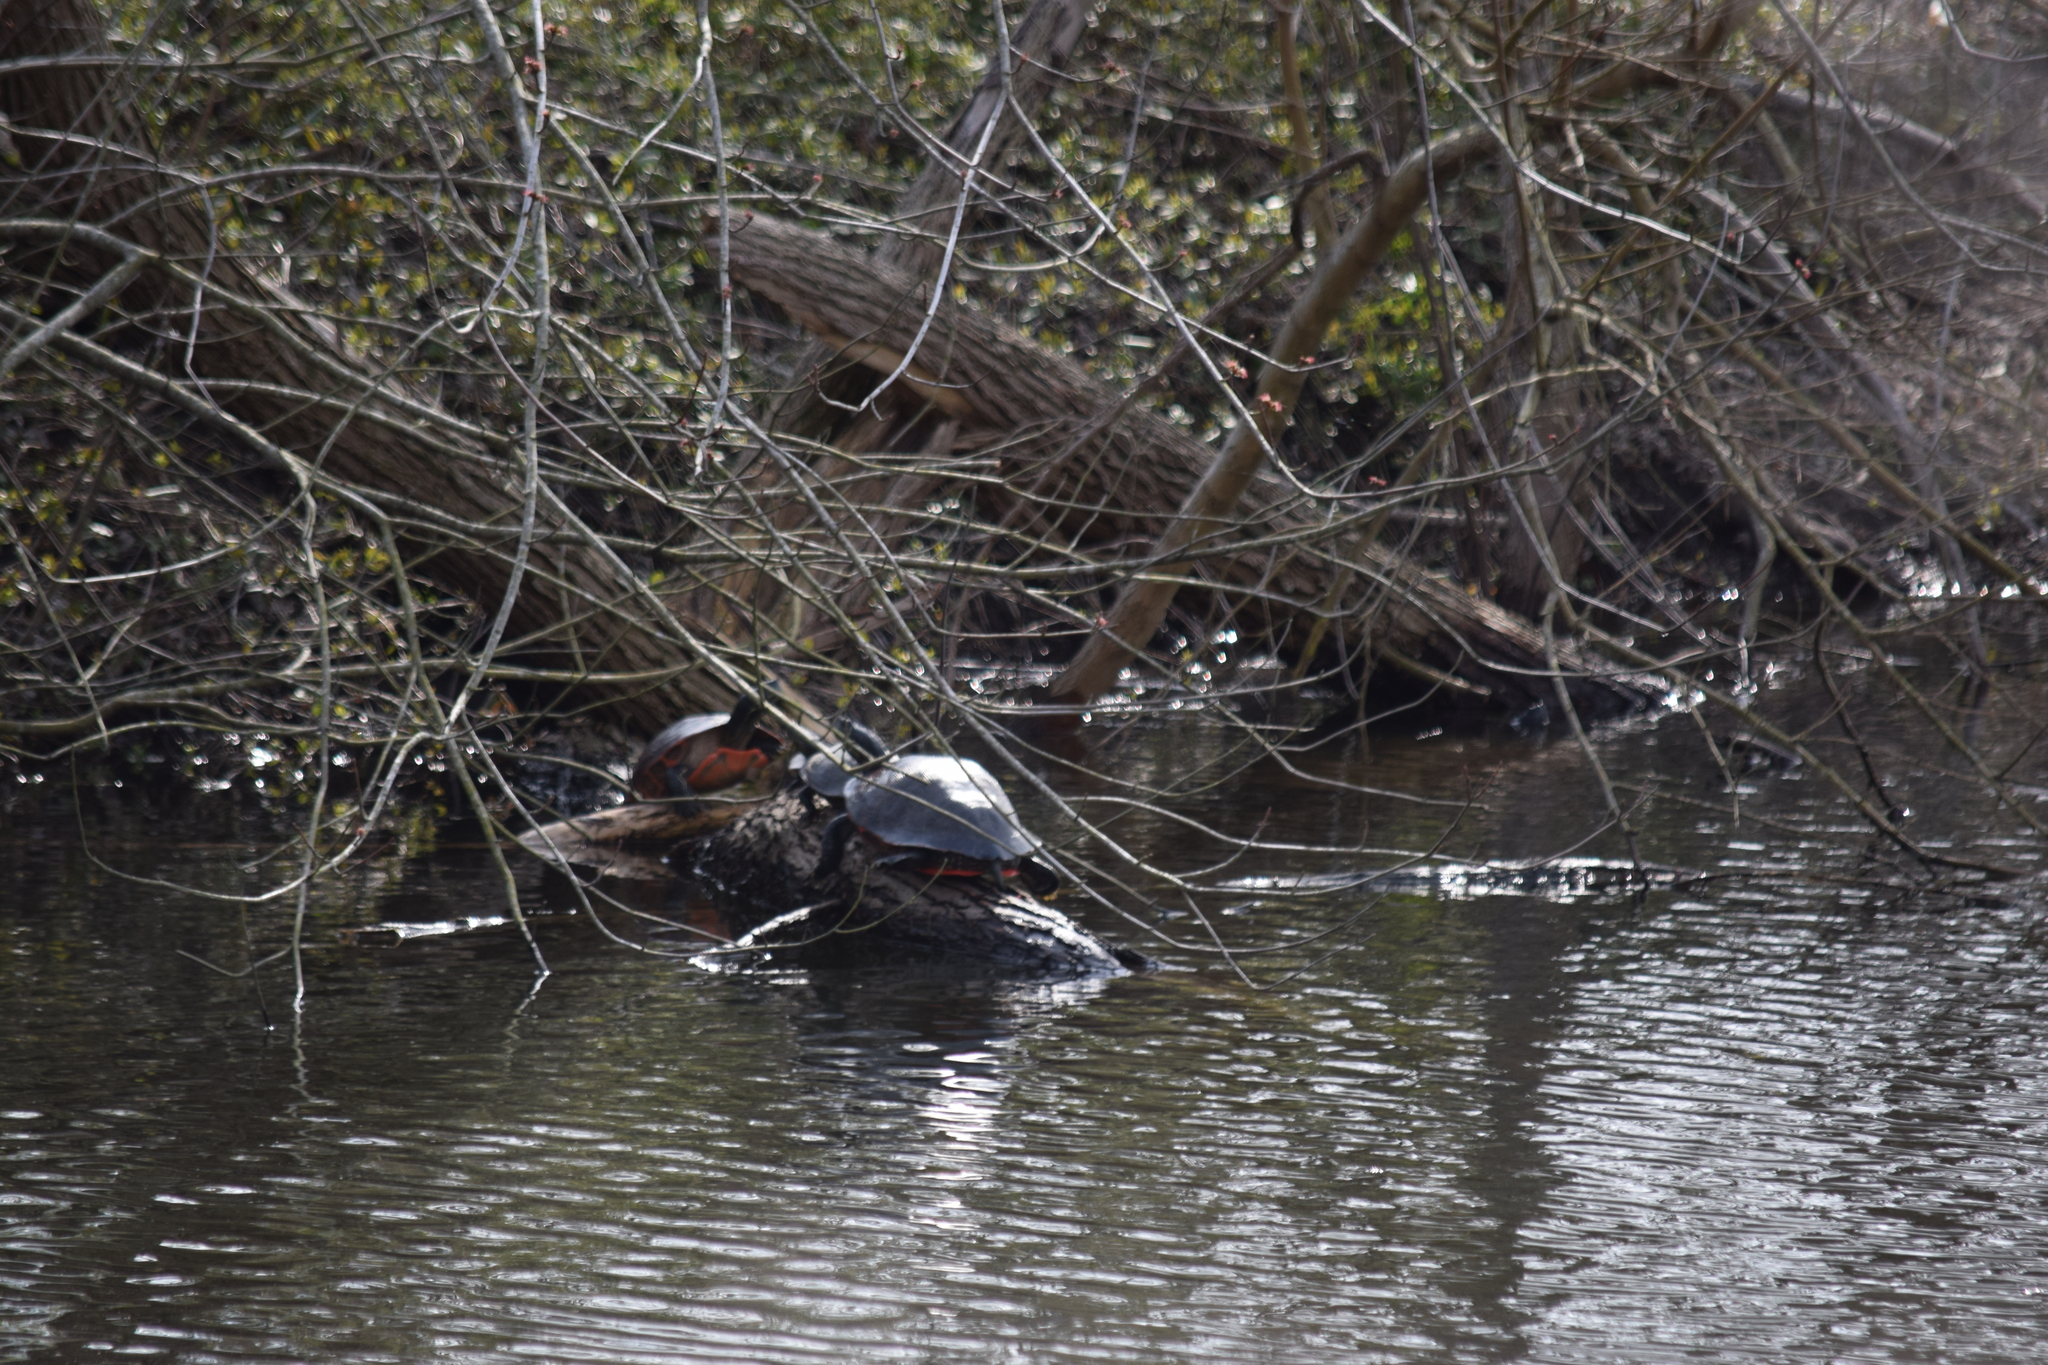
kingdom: Animalia
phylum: Chordata
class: Testudines
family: Emydidae
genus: Pseudemys
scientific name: Pseudemys rubriventris
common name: American red-bellied turtle
